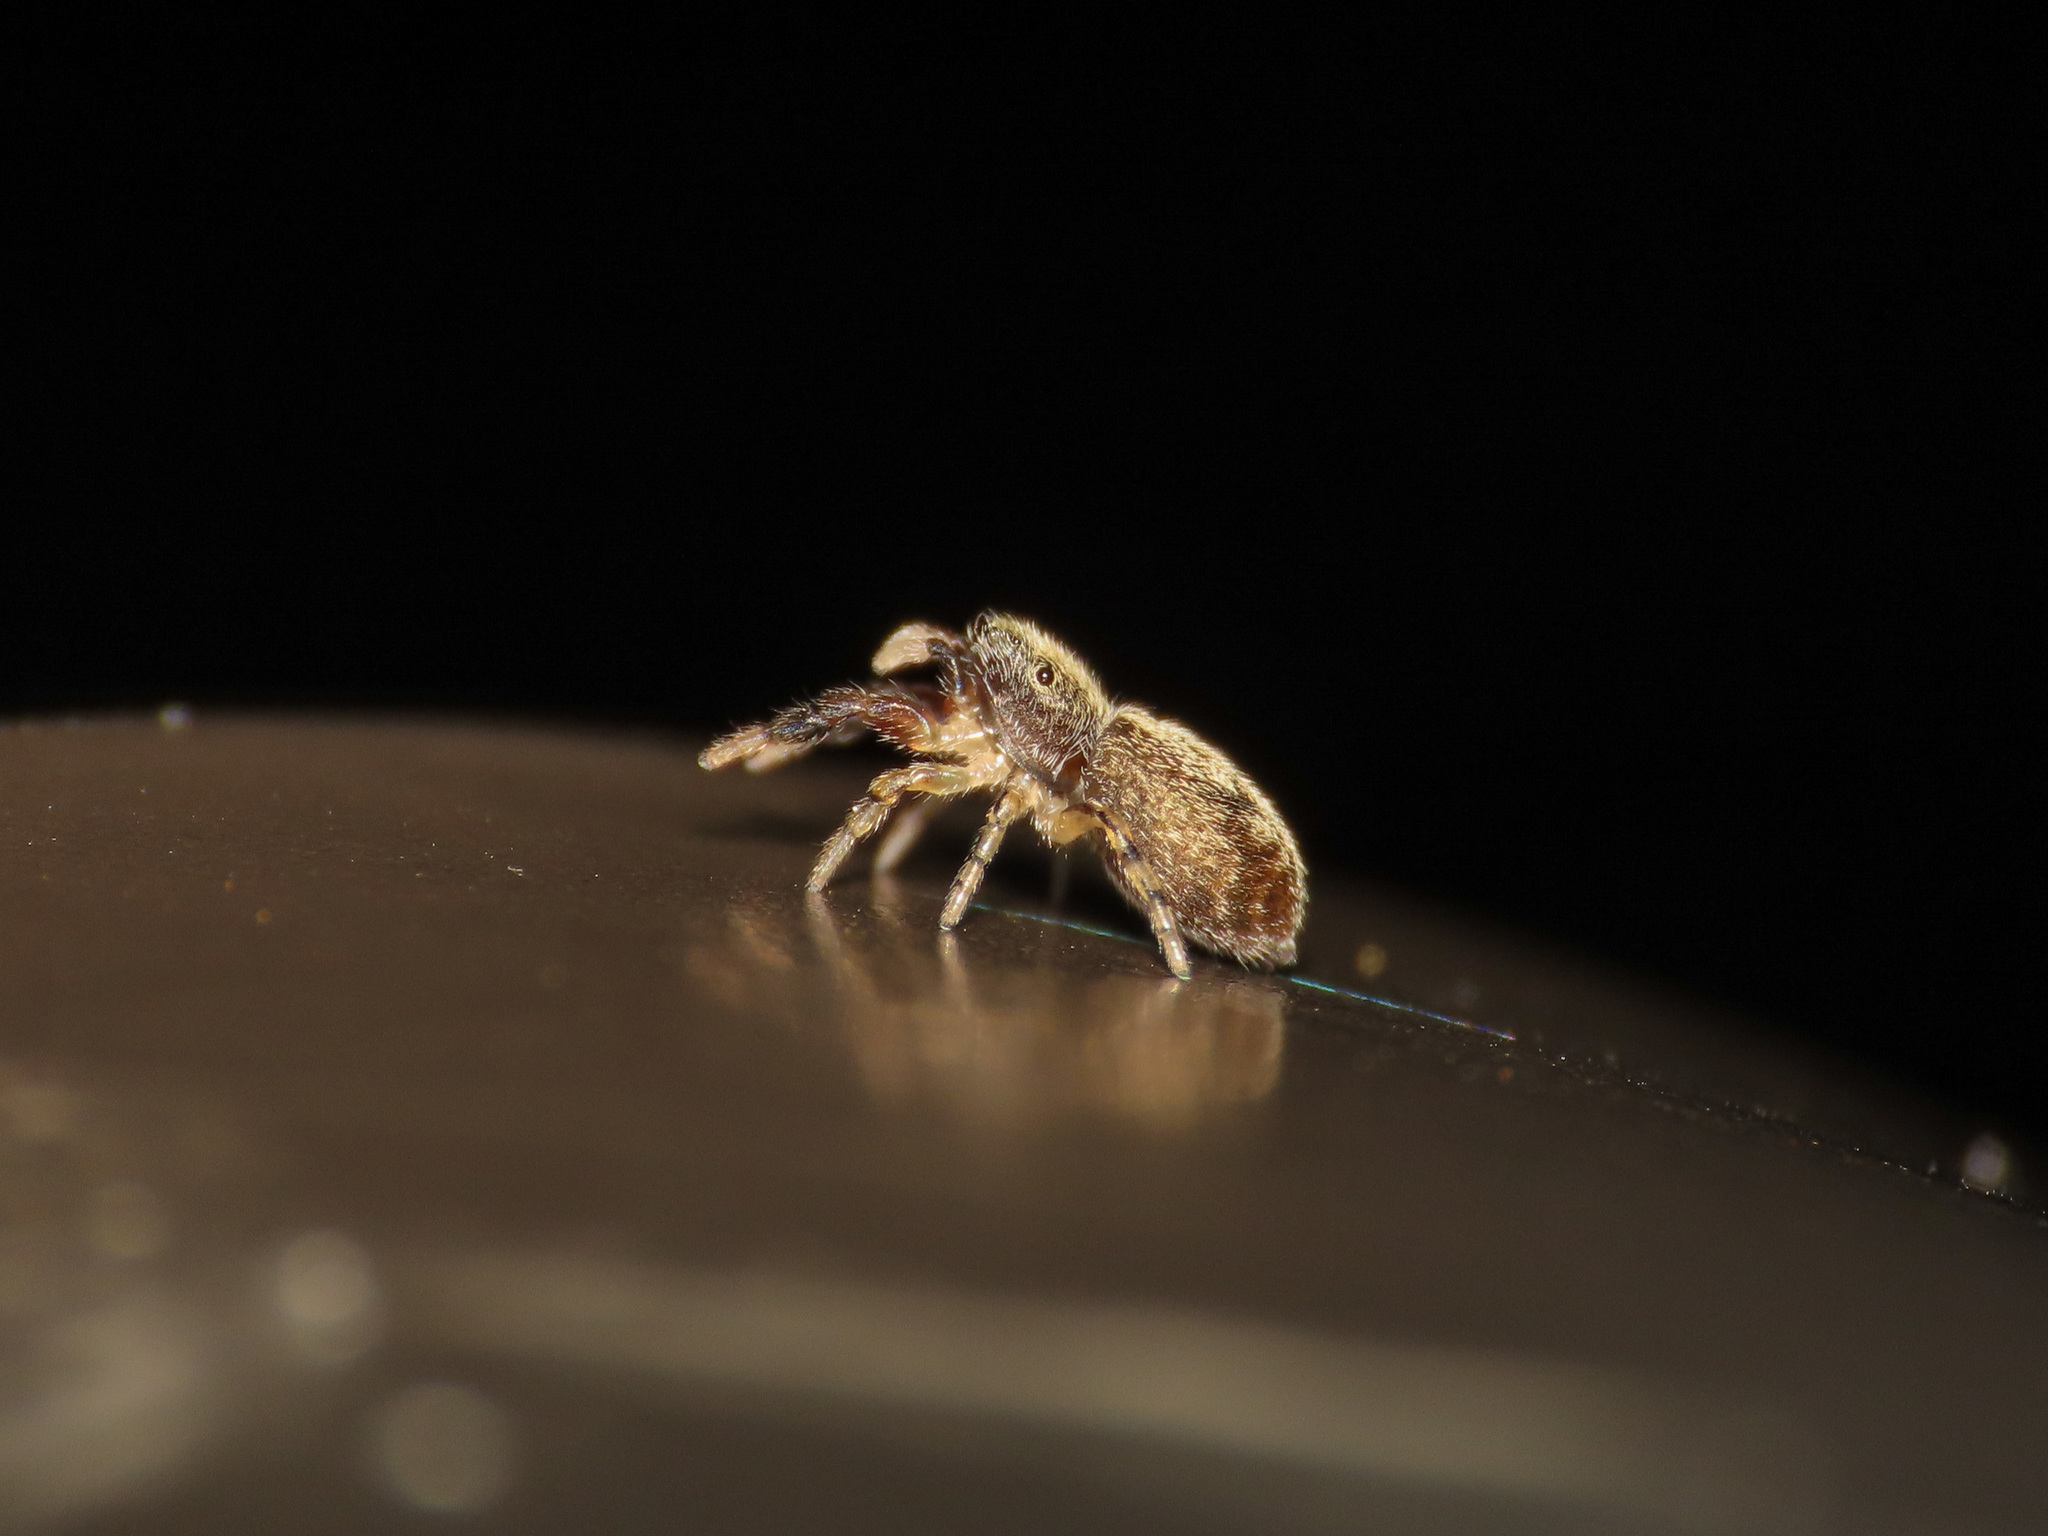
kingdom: Animalia
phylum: Arthropoda
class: Arachnida
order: Araneae
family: Salticidae
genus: Ballus
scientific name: Ballus chalybeius
